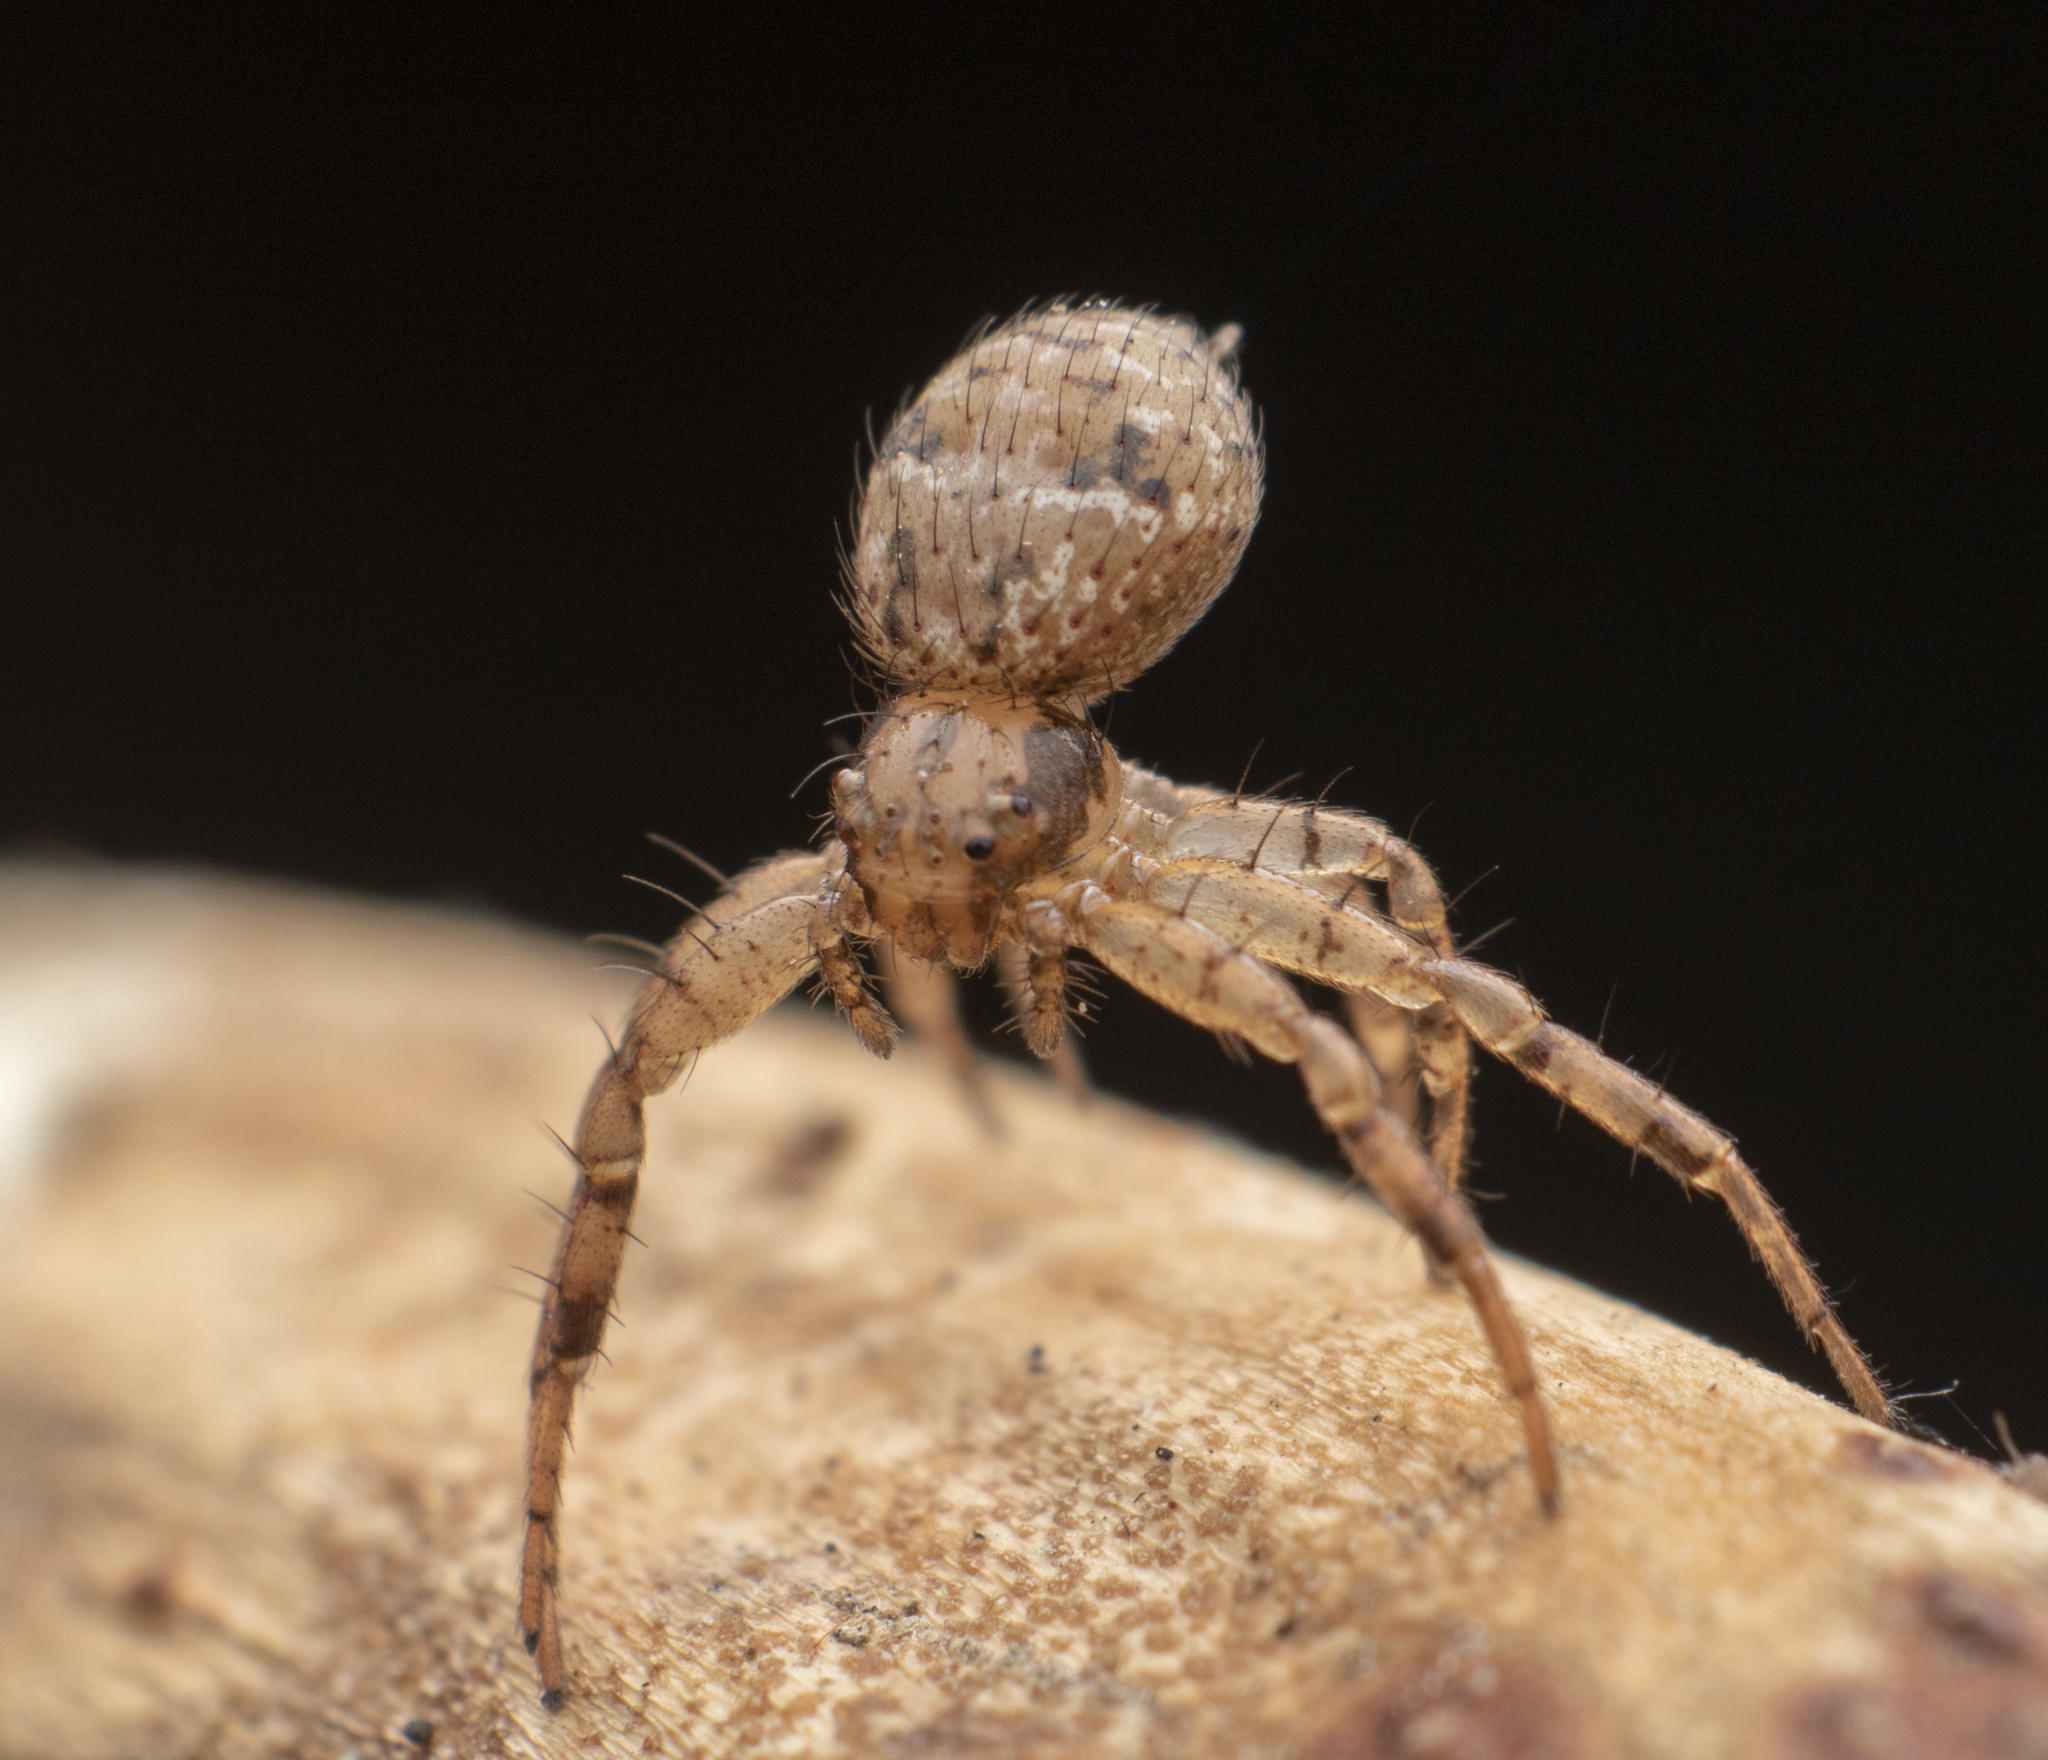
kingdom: Animalia
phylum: Arthropoda
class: Arachnida
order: Araneae
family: Thomisidae
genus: Indoxysticus
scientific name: Indoxysticus minutus
